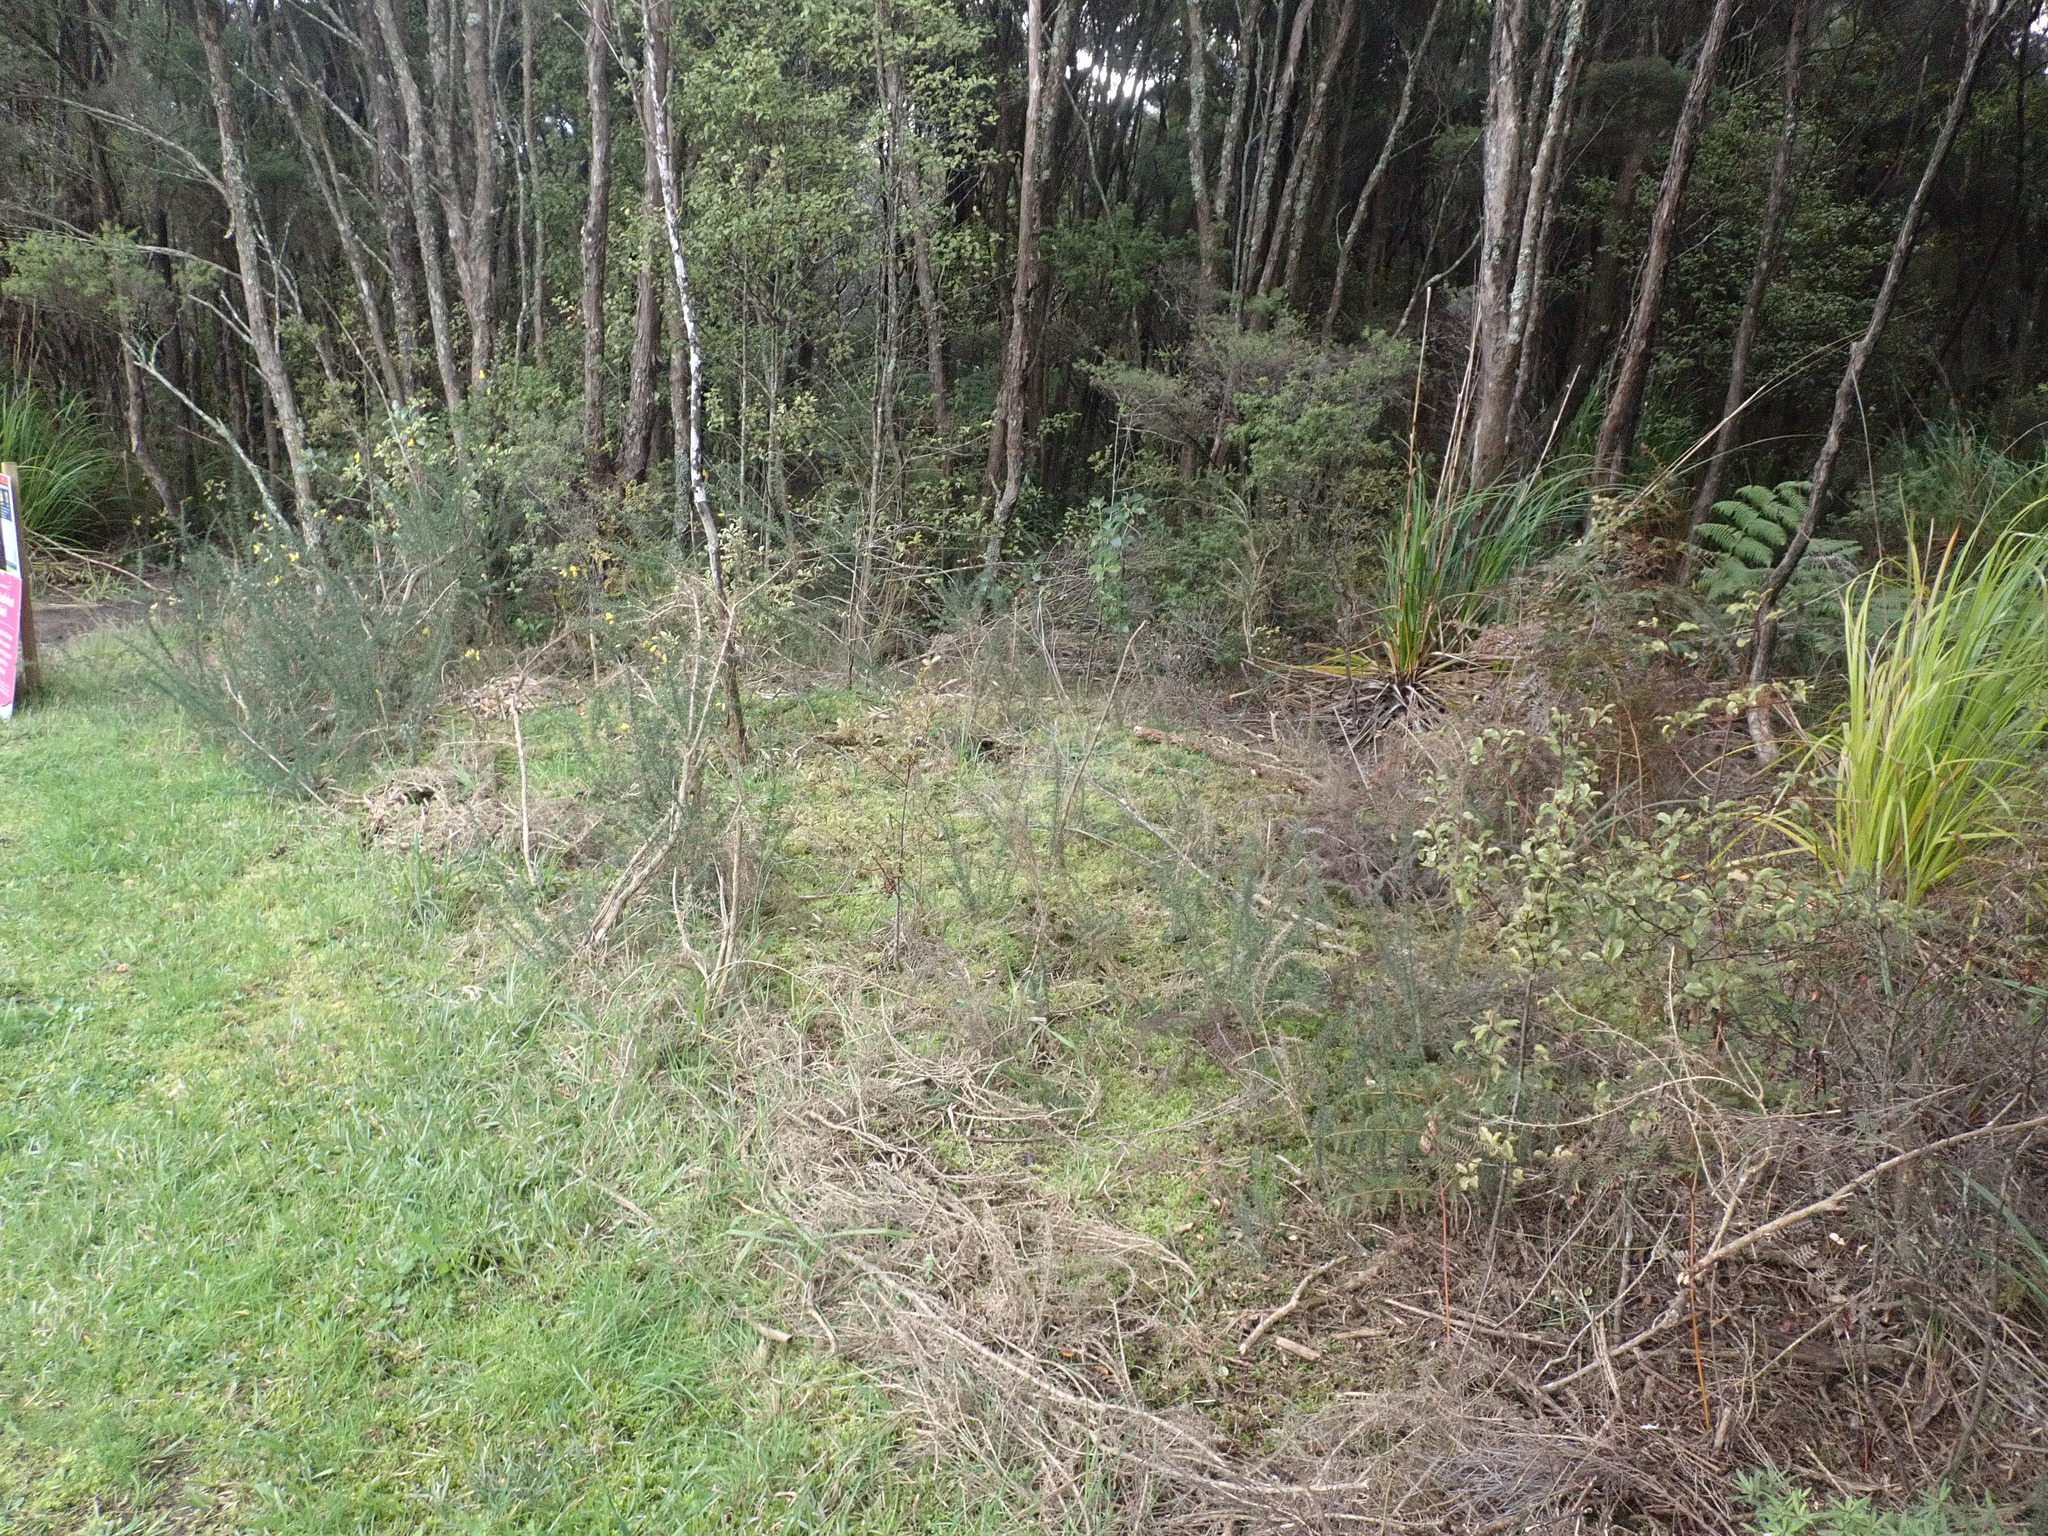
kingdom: Plantae
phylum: Tracheophyta
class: Magnoliopsida
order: Fabales
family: Fabaceae
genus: Ulex
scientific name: Ulex europaeus
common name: Common gorse
